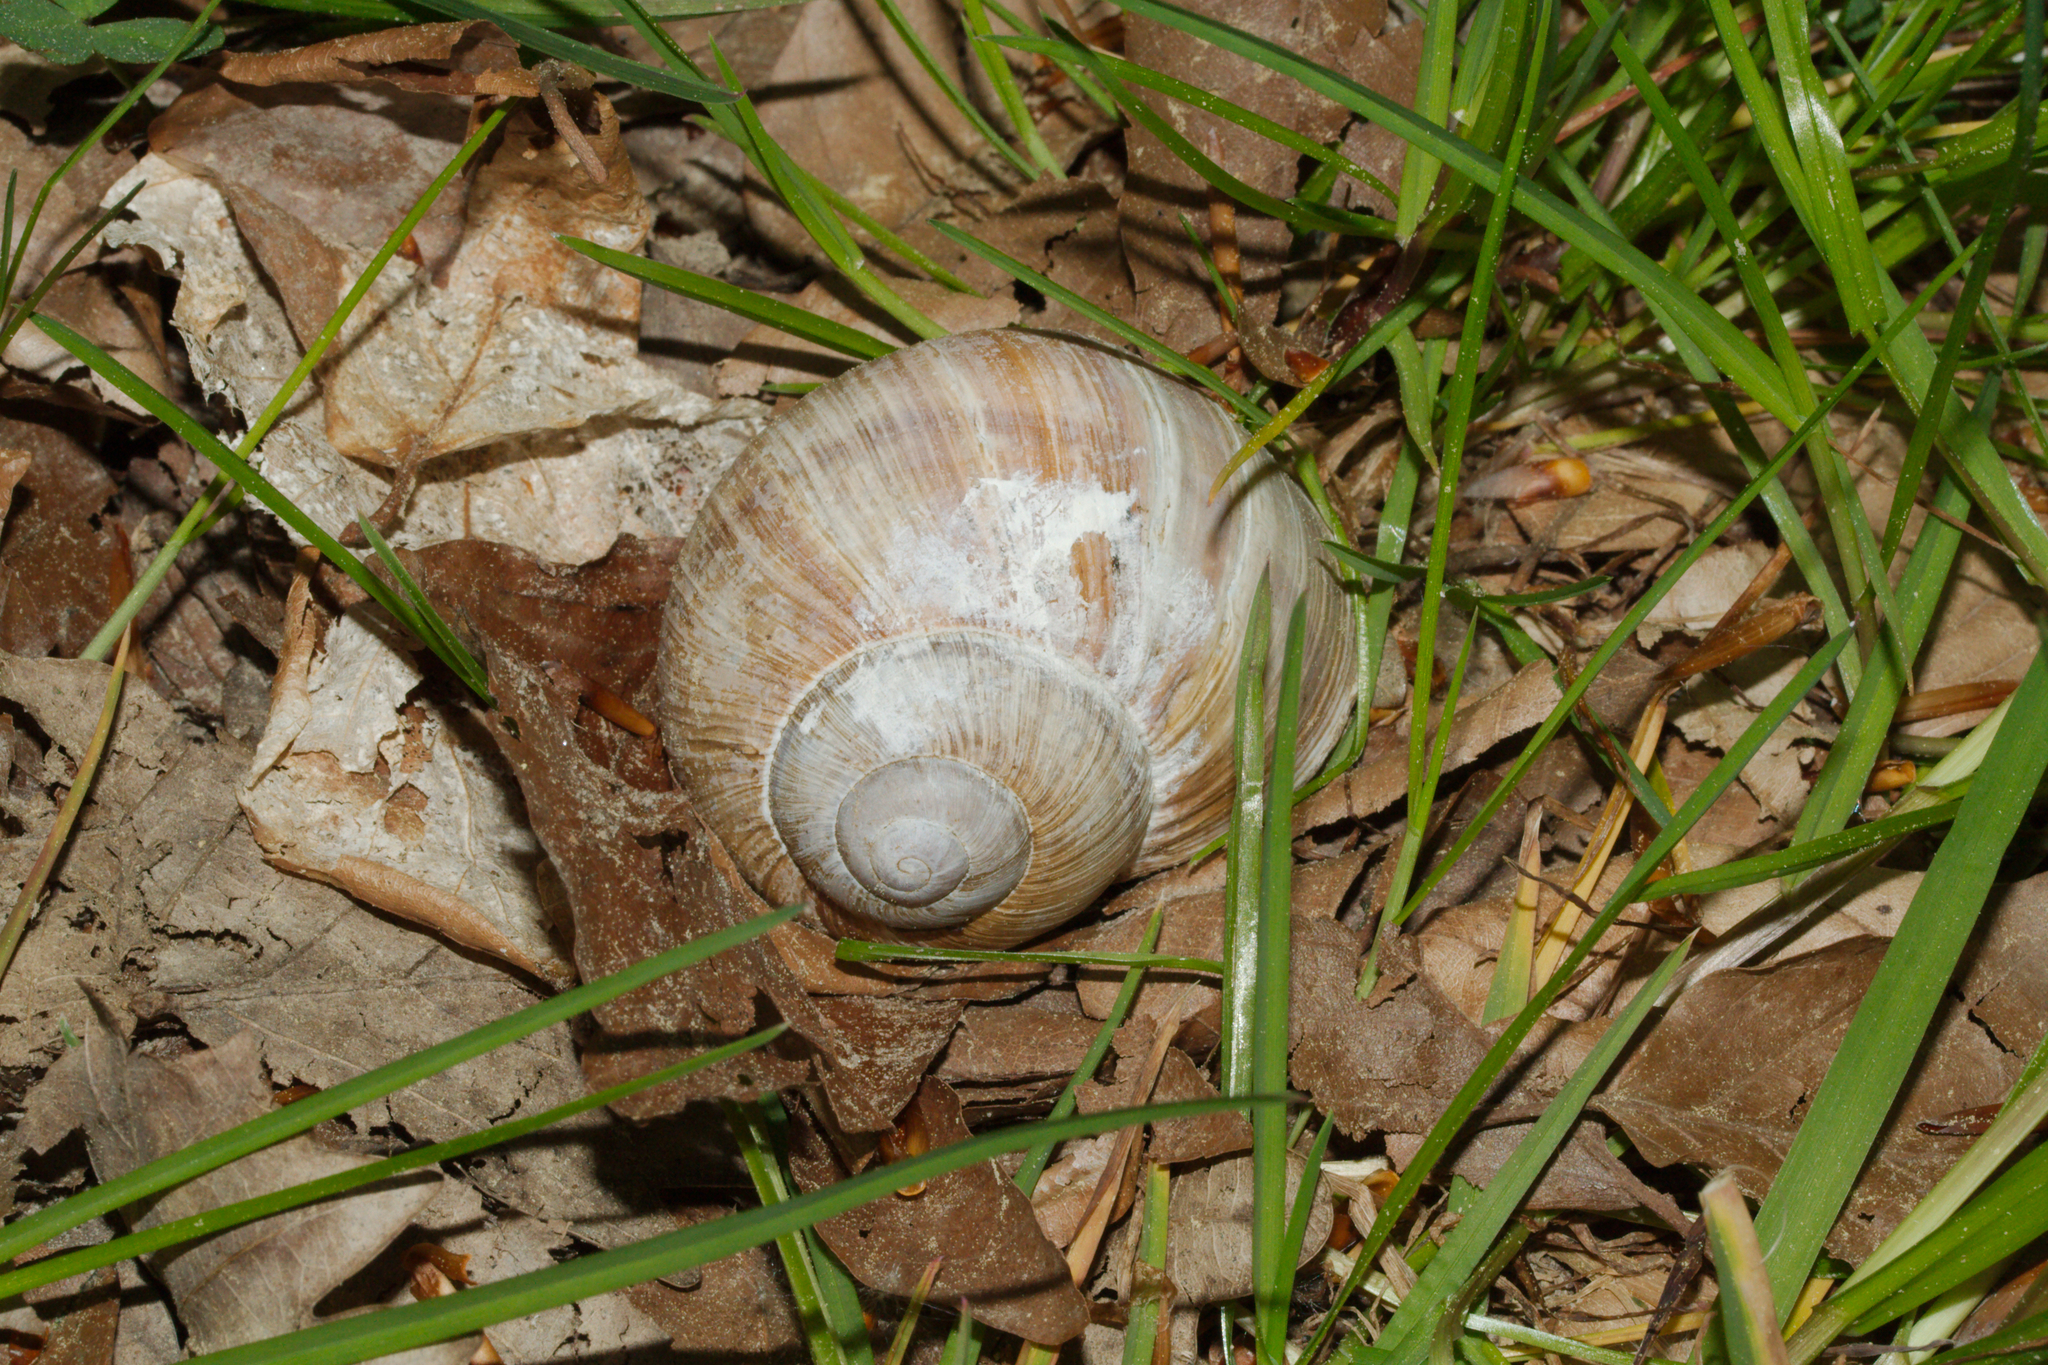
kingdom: Animalia
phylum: Mollusca
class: Gastropoda
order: Stylommatophora
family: Helicidae
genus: Helix
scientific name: Helix pomatia
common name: Roman snail
